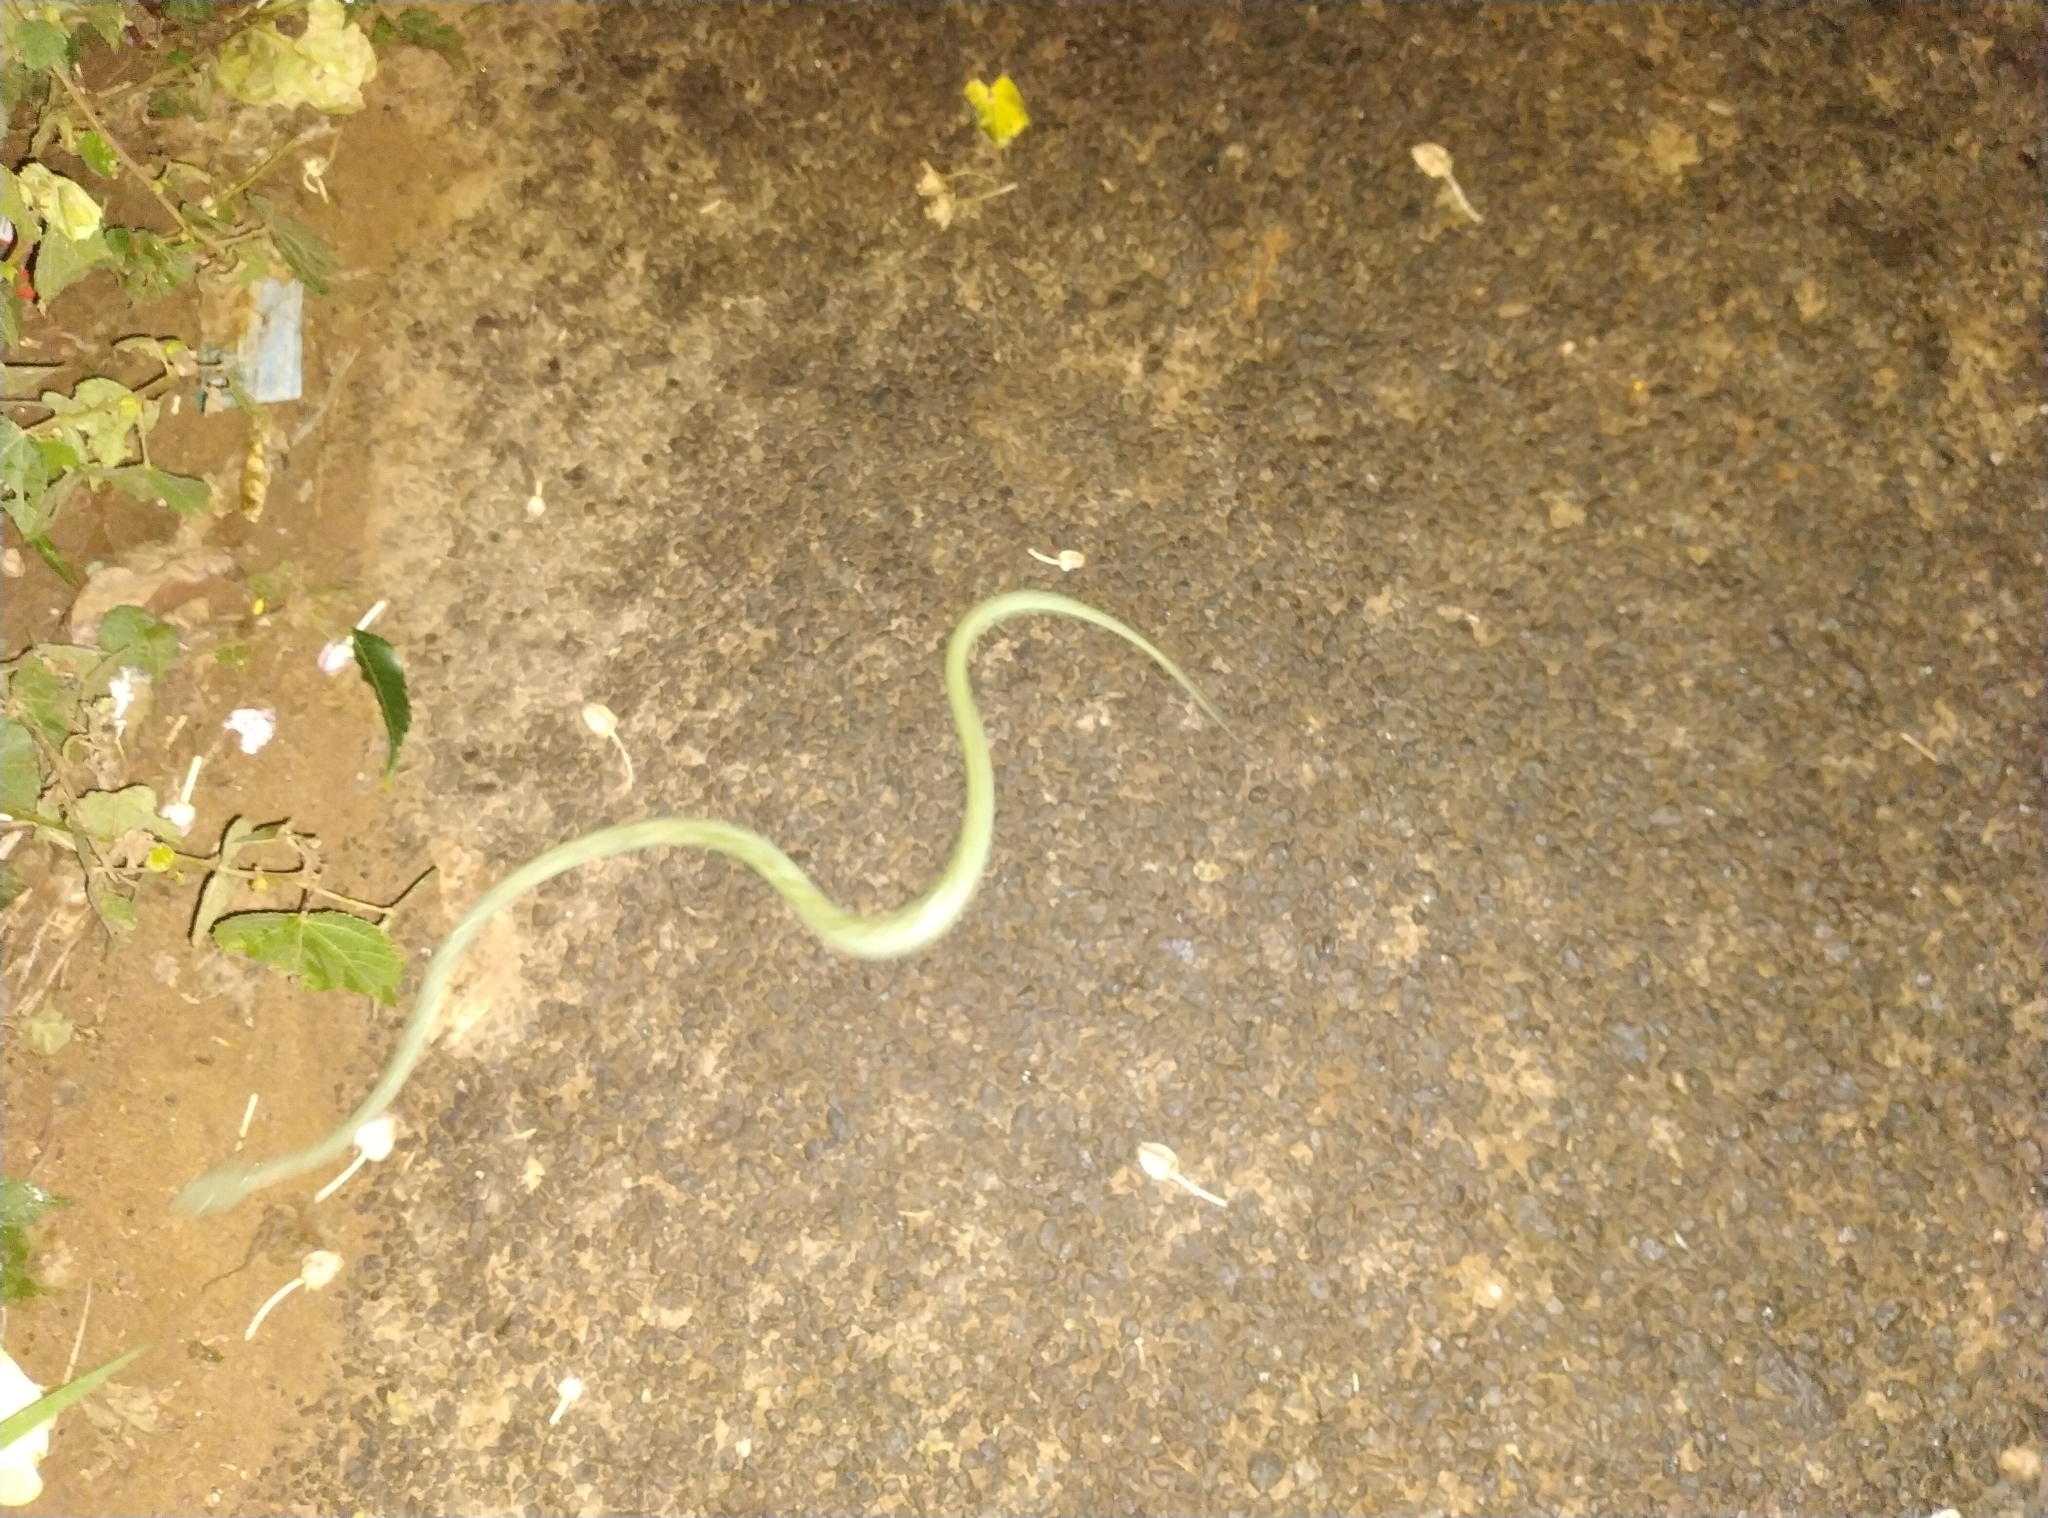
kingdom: Animalia
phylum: Chordata
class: Squamata
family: Viperidae
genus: Craspedocephalus
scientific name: Craspedocephalus gramineus
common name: Common bamboo viper
